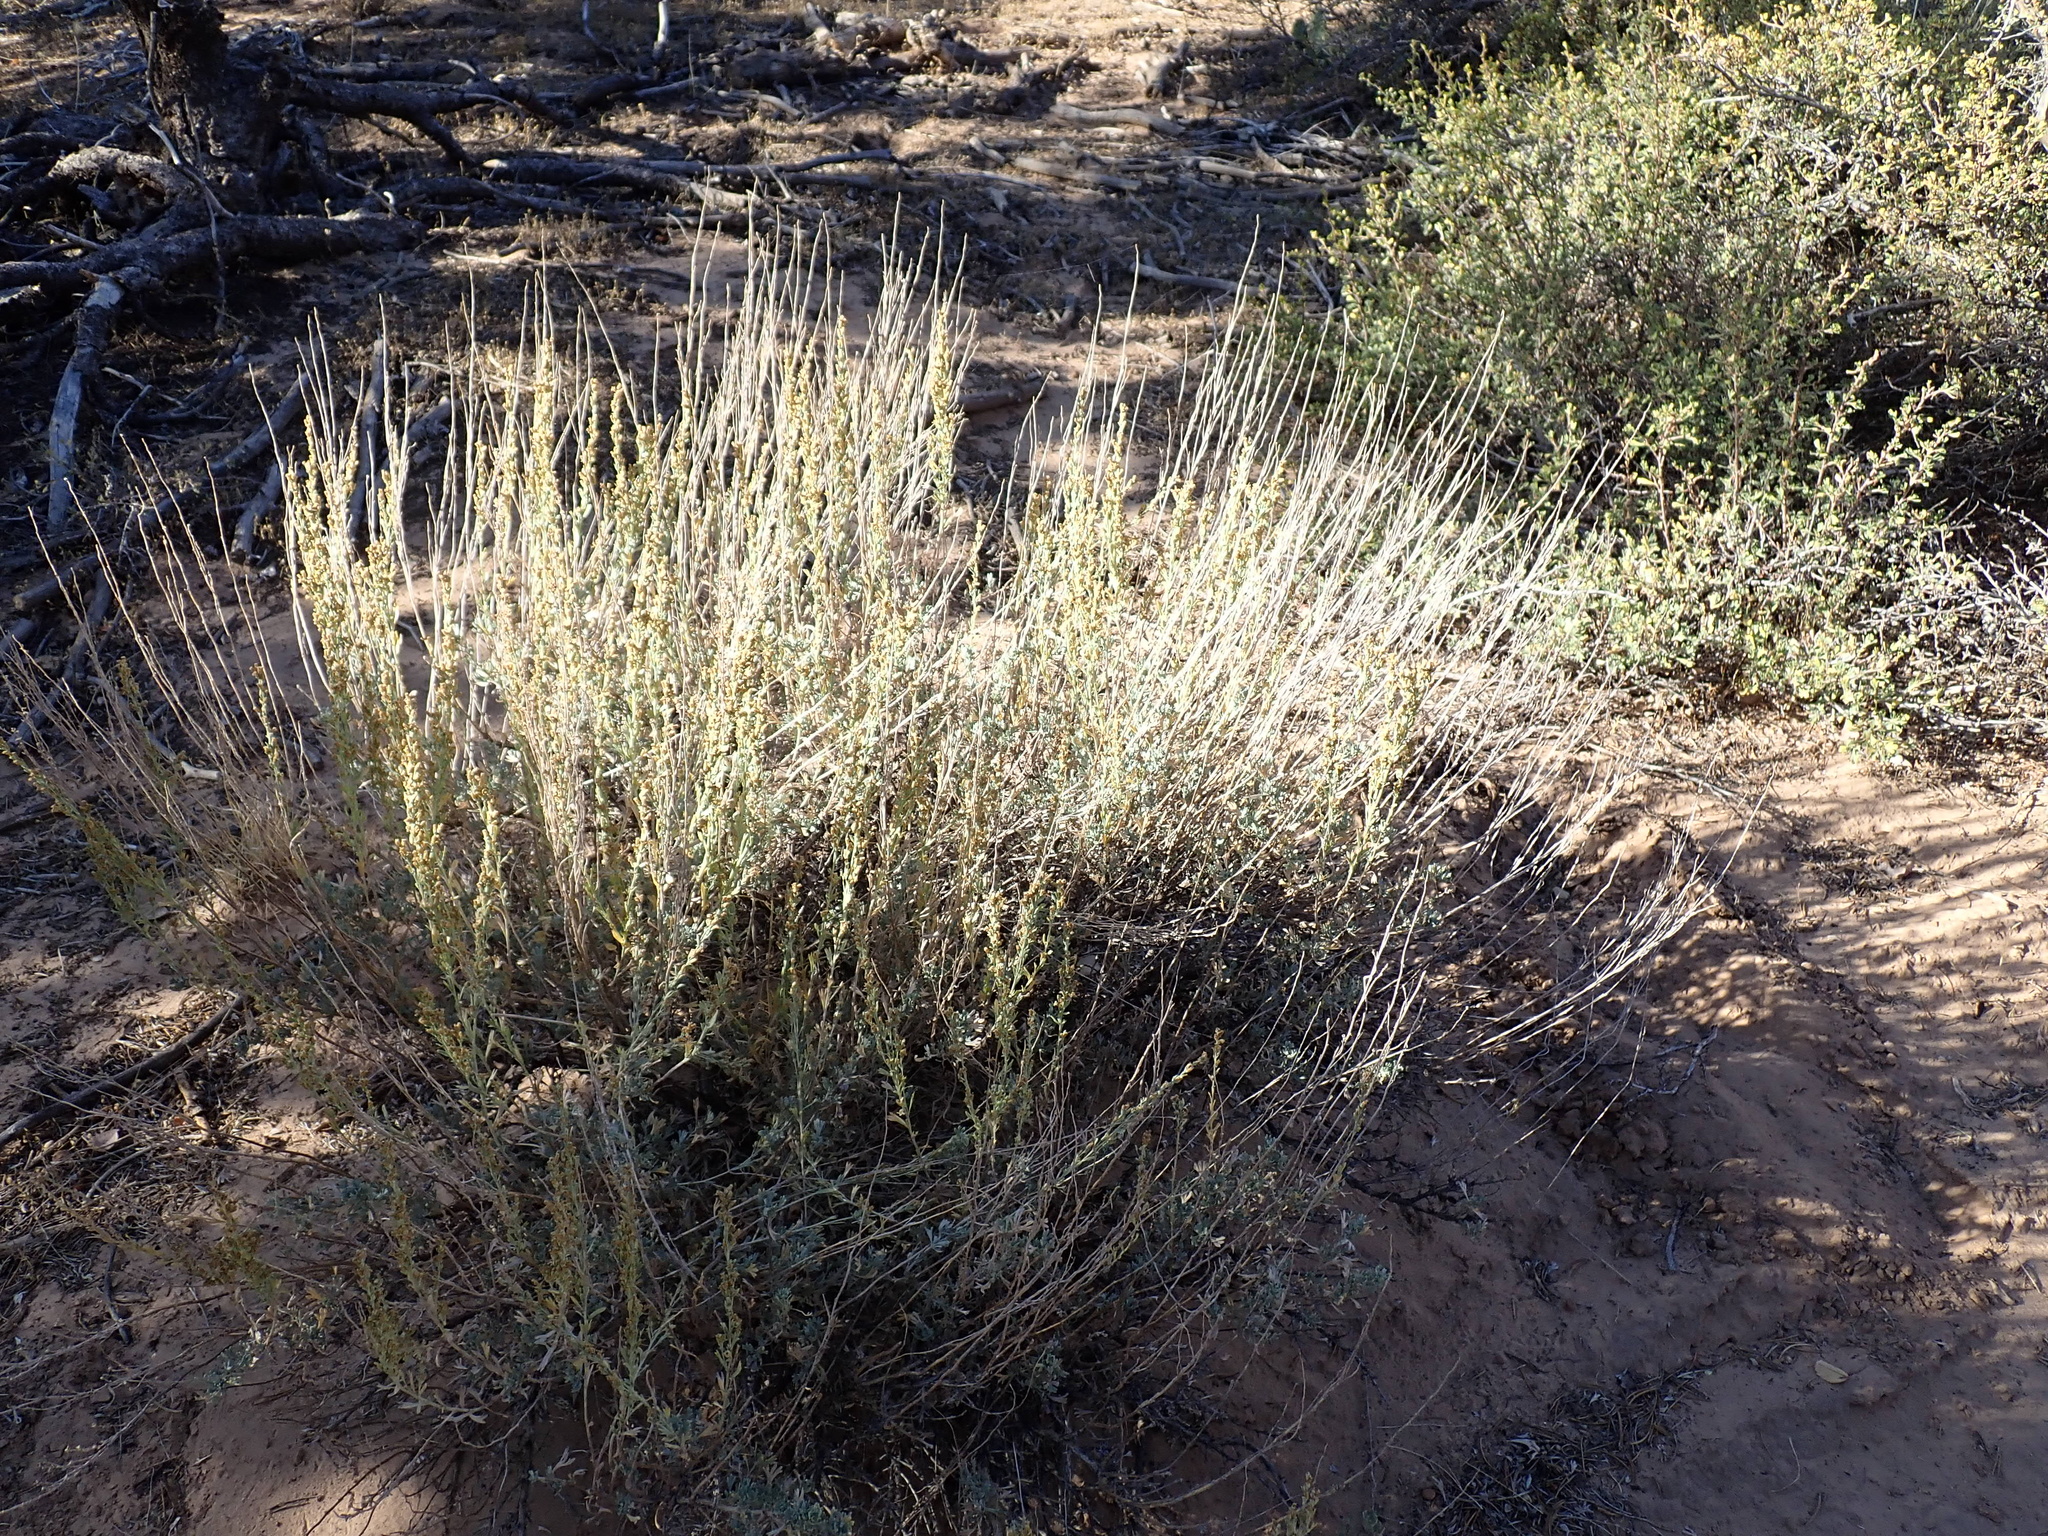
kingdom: Plantae
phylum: Tracheophyta
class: Magnoliopsida
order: Asterales
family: Asteraceae
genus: Artemisia
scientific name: Artemisia tridentata
